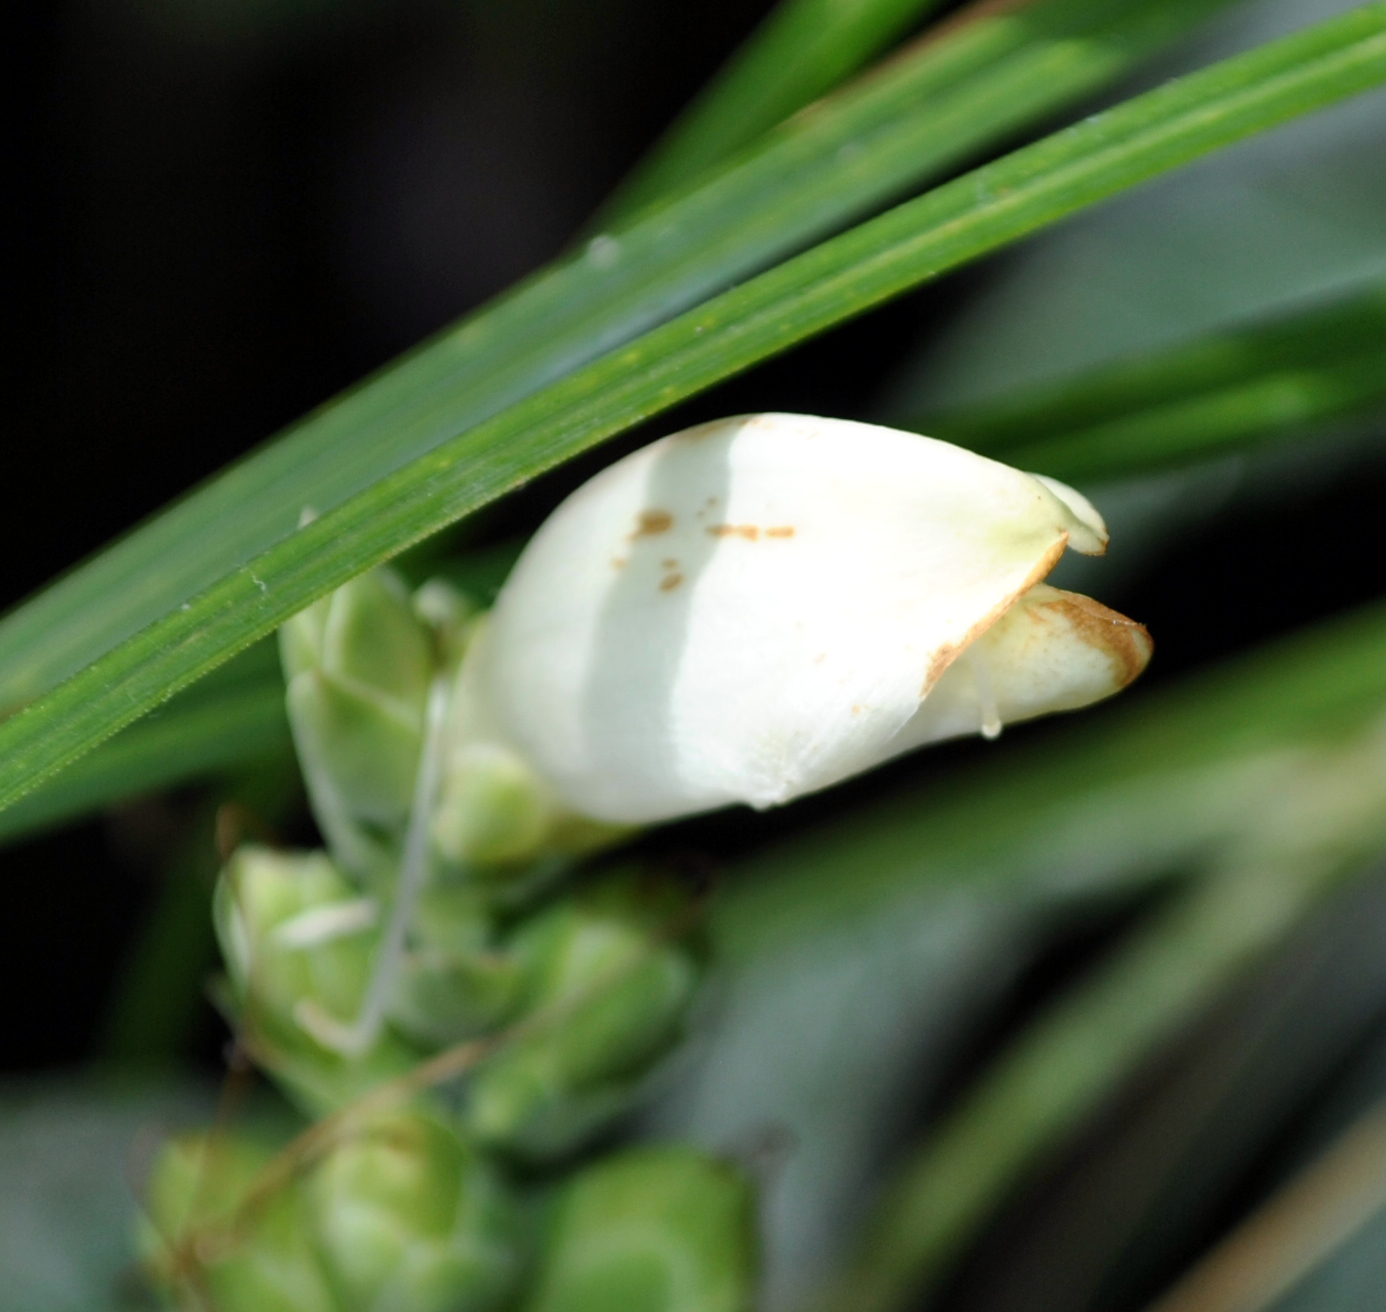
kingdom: Plantae
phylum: Tracheophyta
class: Magnoliopsida
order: Lamiales
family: Plantaginaceae
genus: Chelone
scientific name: Chelone glabra
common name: Snakehead
